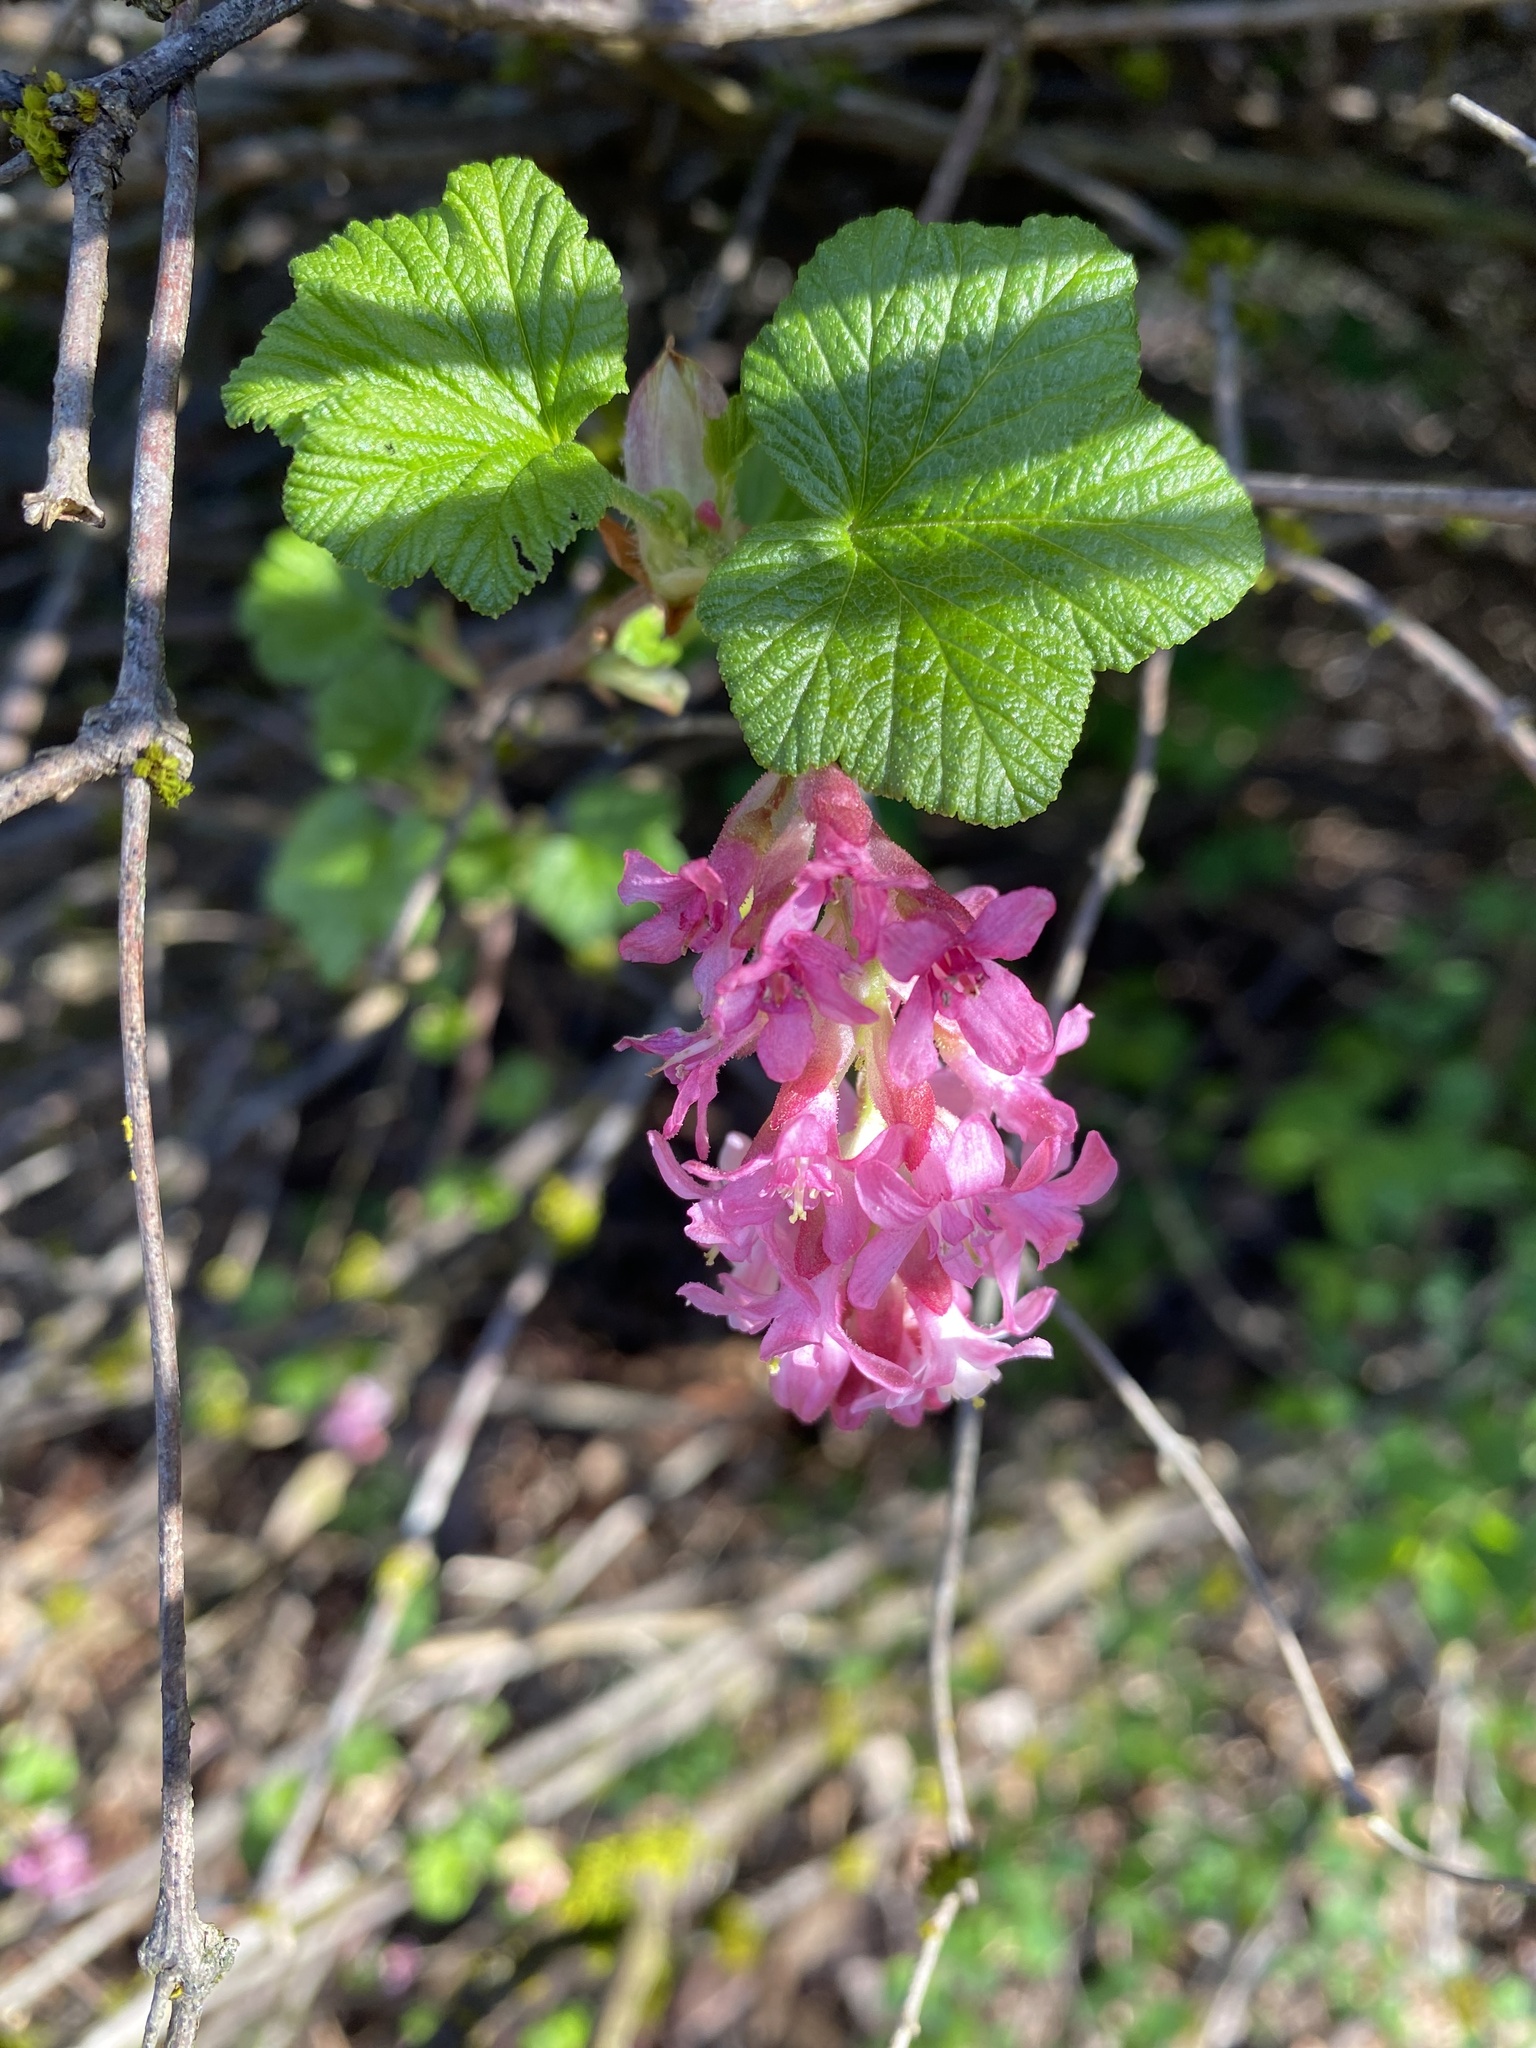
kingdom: Plantae
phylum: Tracheophyta
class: Magnoliopsida
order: Saxifragales
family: Grossulariaceae
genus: Ribes
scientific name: Ribes sanguineum
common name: Flowering currant
